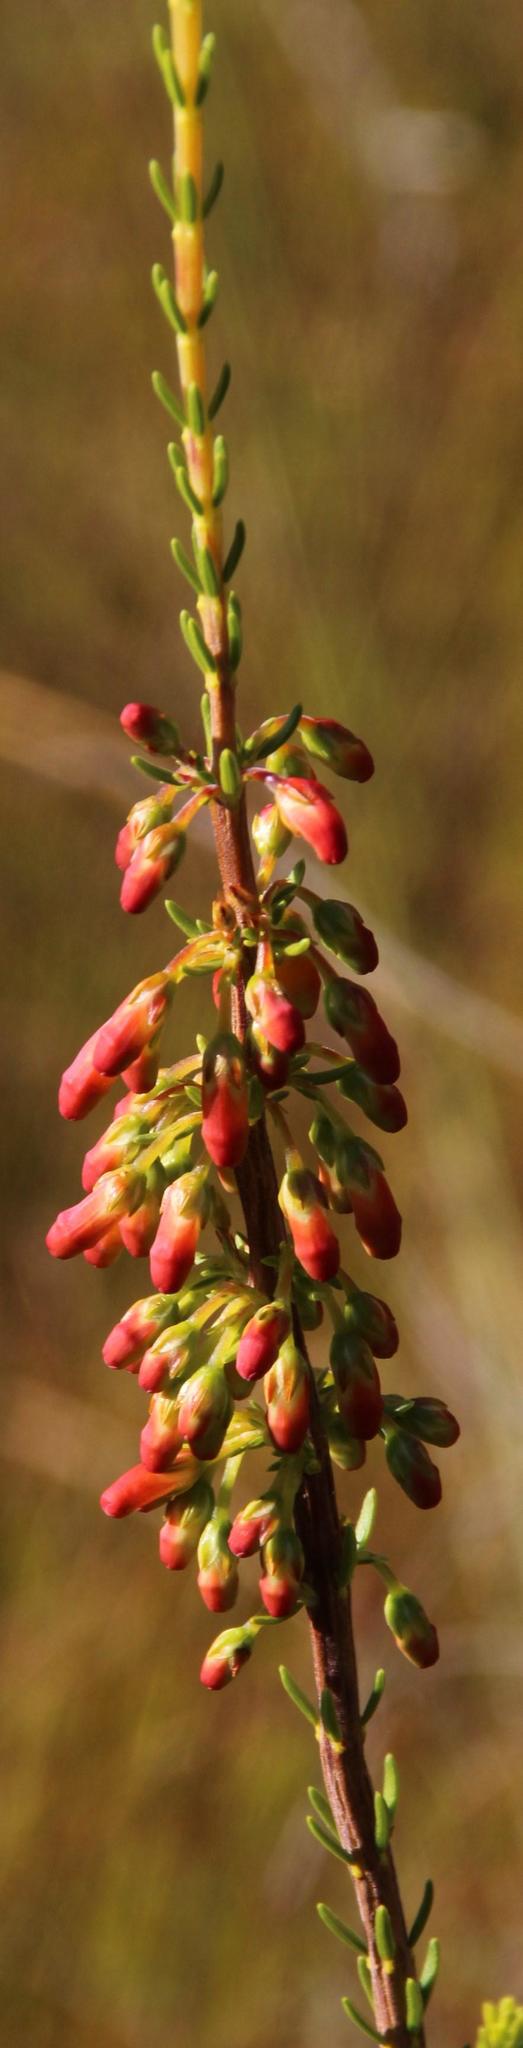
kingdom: Plantae
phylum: Tracheophyta
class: Magnoliopsida
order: Ericales
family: Ericaceae
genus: Erica
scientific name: Erica mammosa
